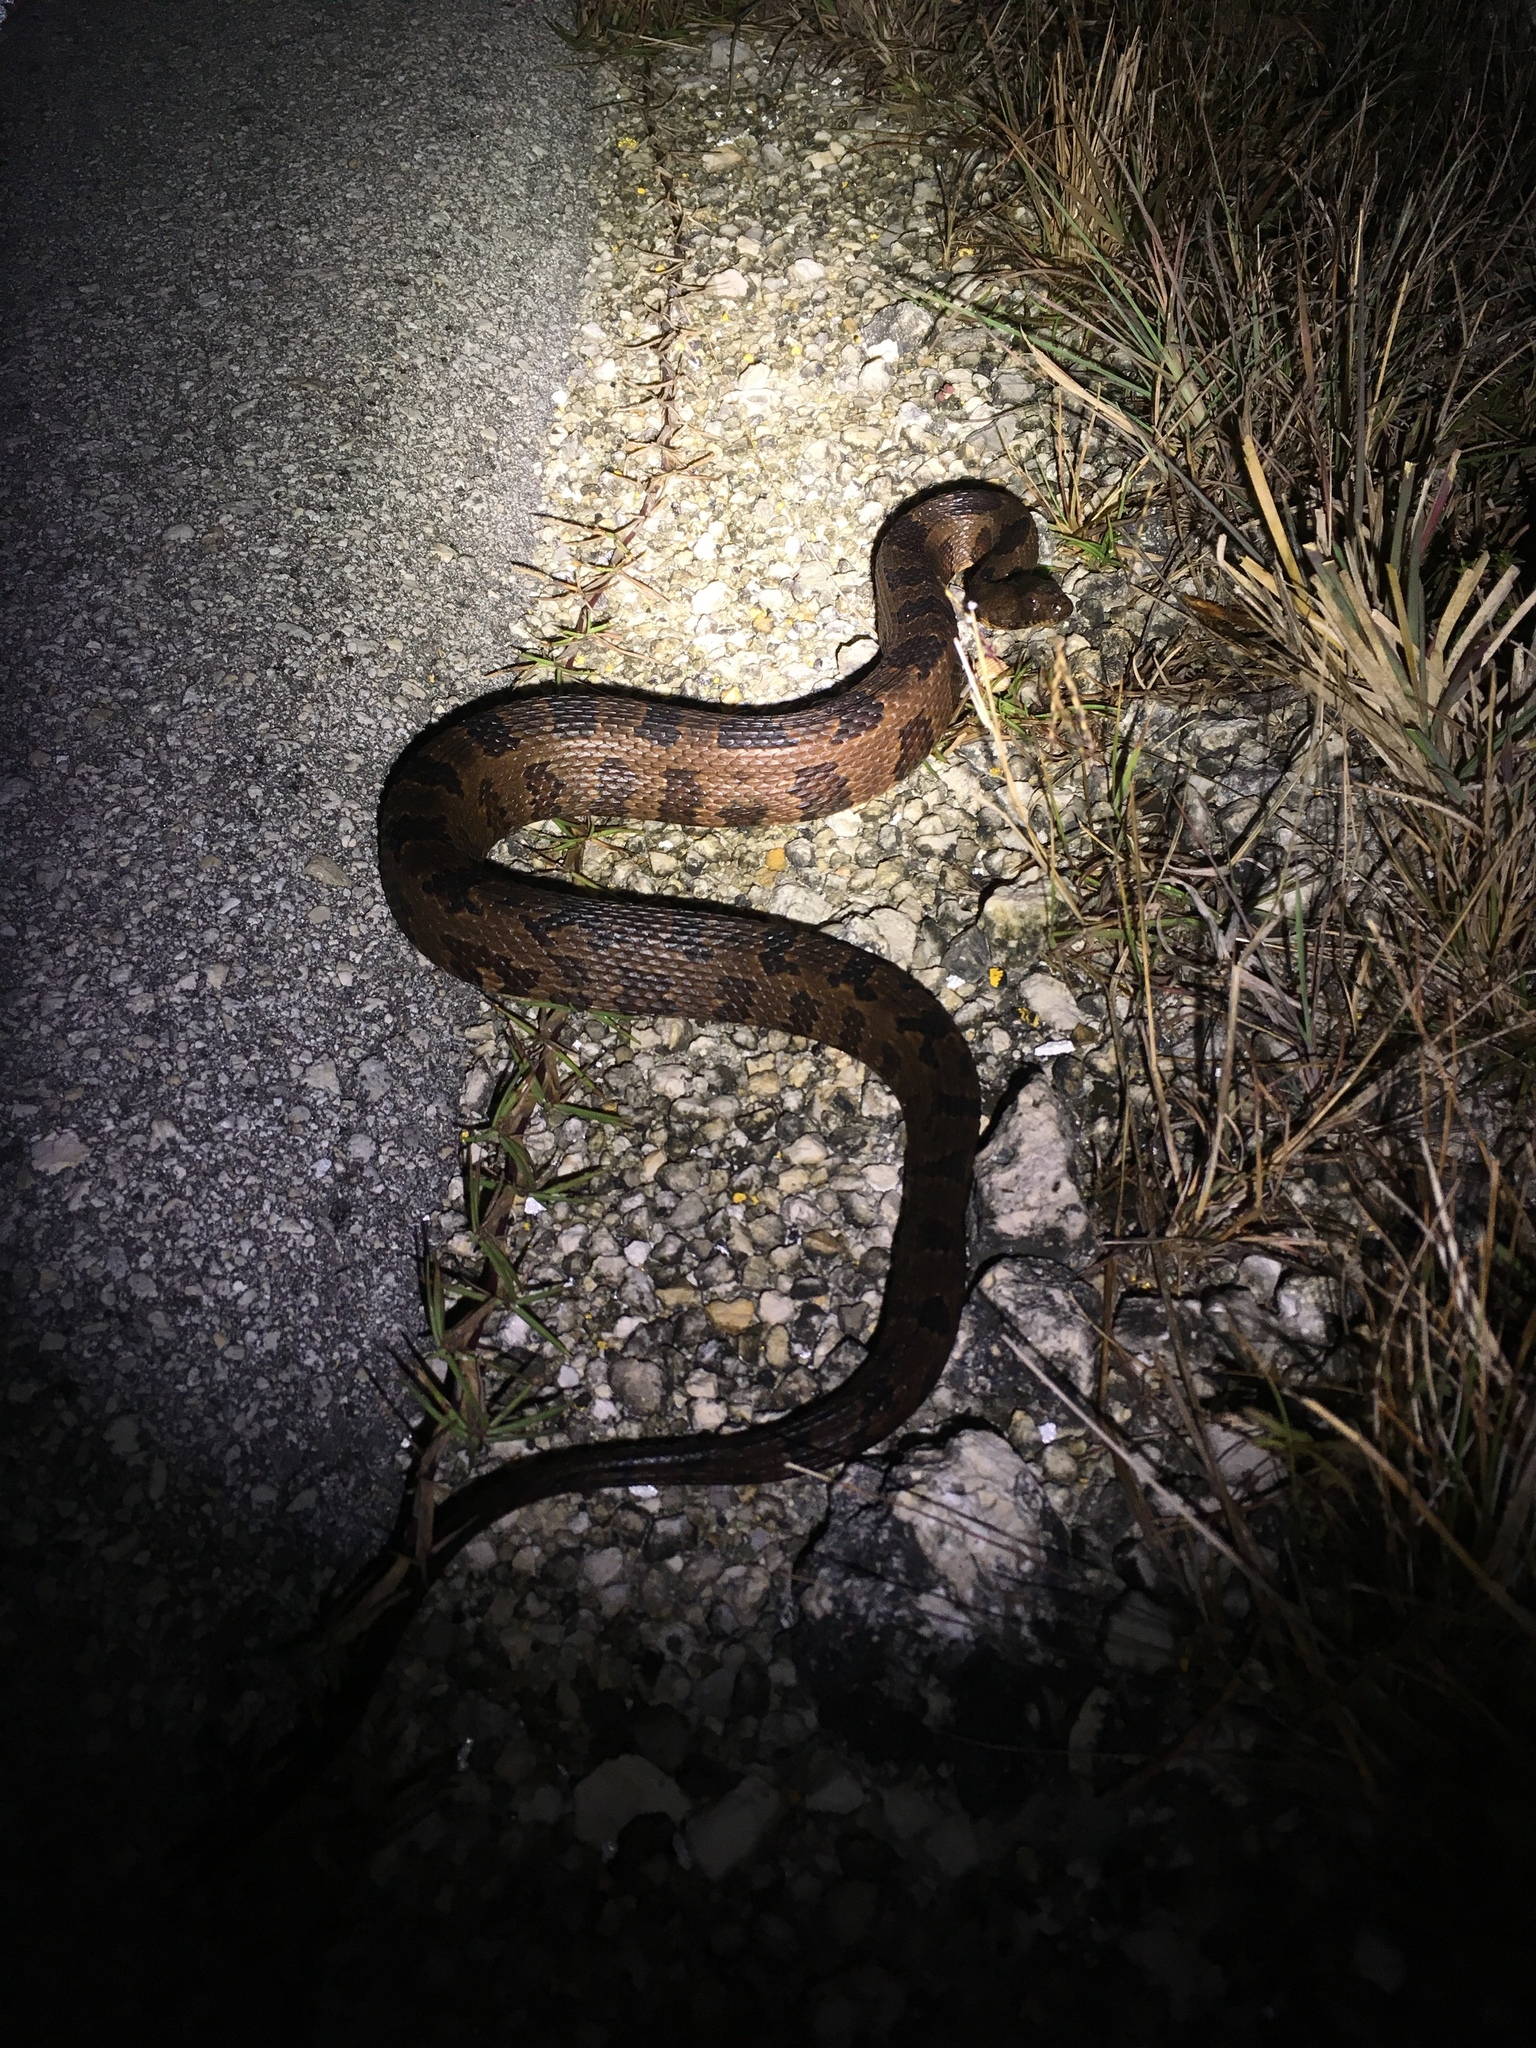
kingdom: Animalia
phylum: Chordata
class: Squamata
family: Colubridae
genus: Nerodia
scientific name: Nerodia taxispilota
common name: Brown water snake
